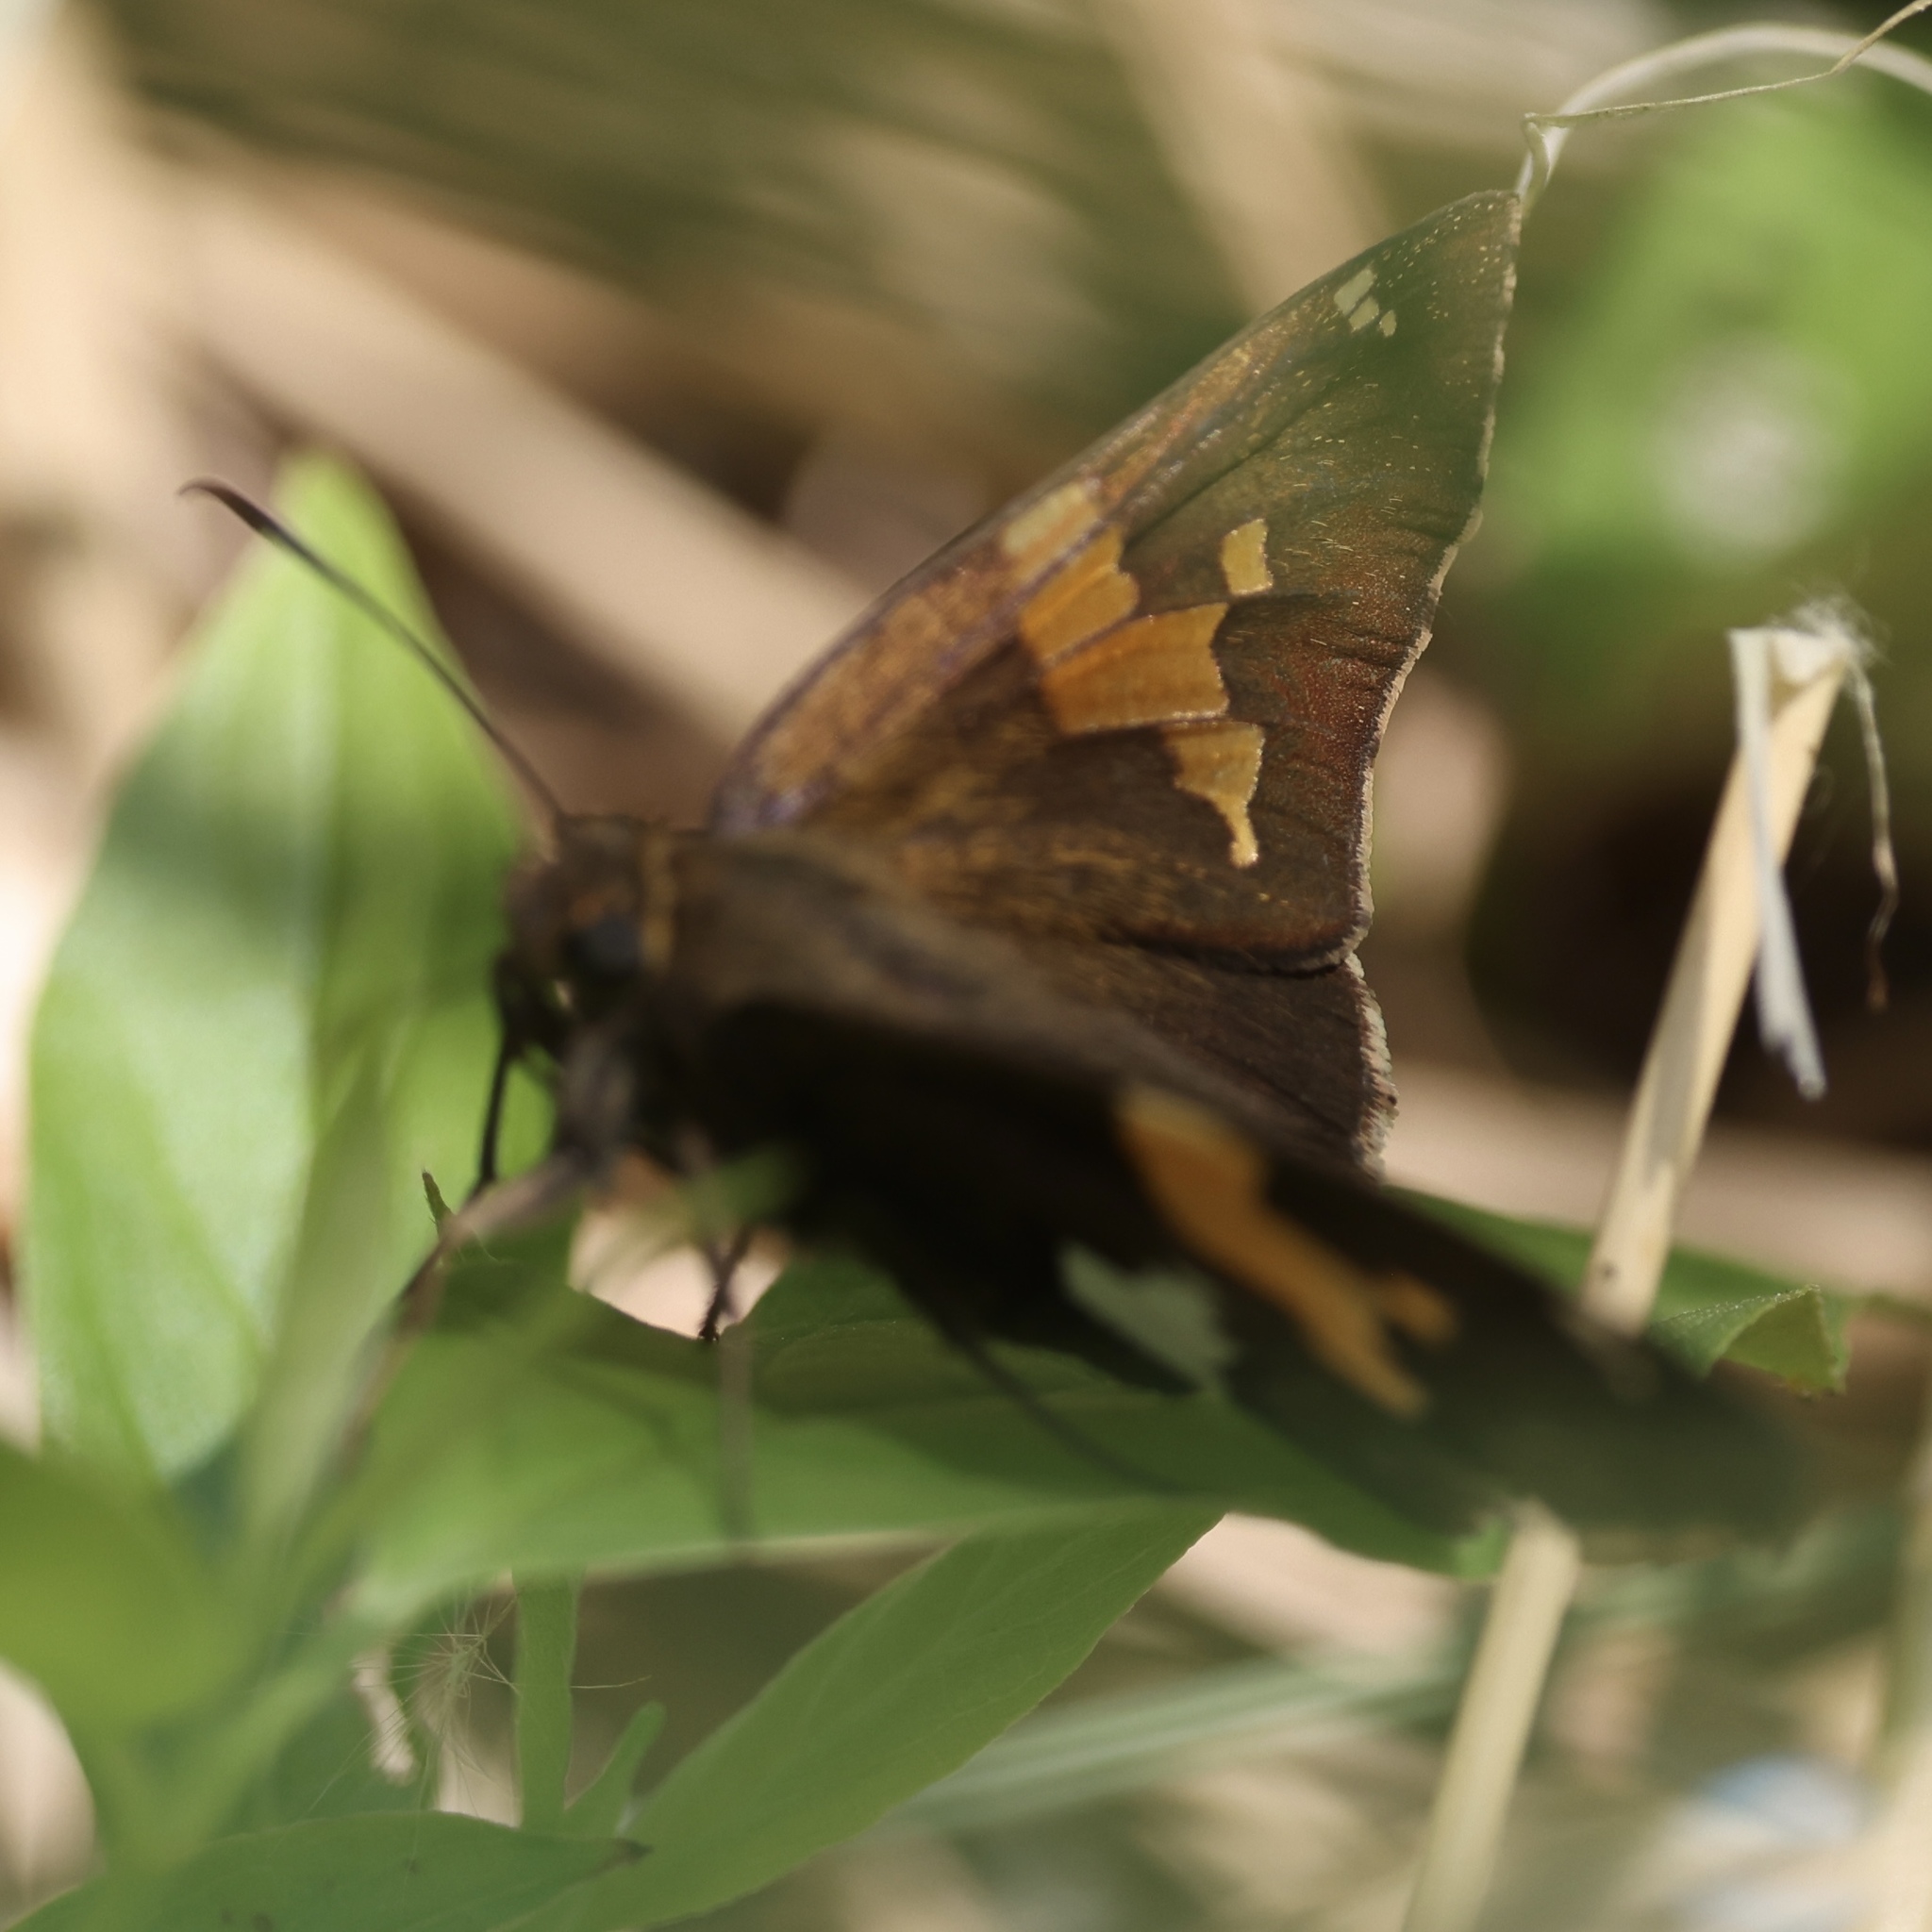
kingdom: Animalia
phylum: Arthropoda
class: Insecta
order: Lepidoptera
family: Hesperiidae
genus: Epargyreus
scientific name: Epargyreus clarus
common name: Silver-spotted skipper
